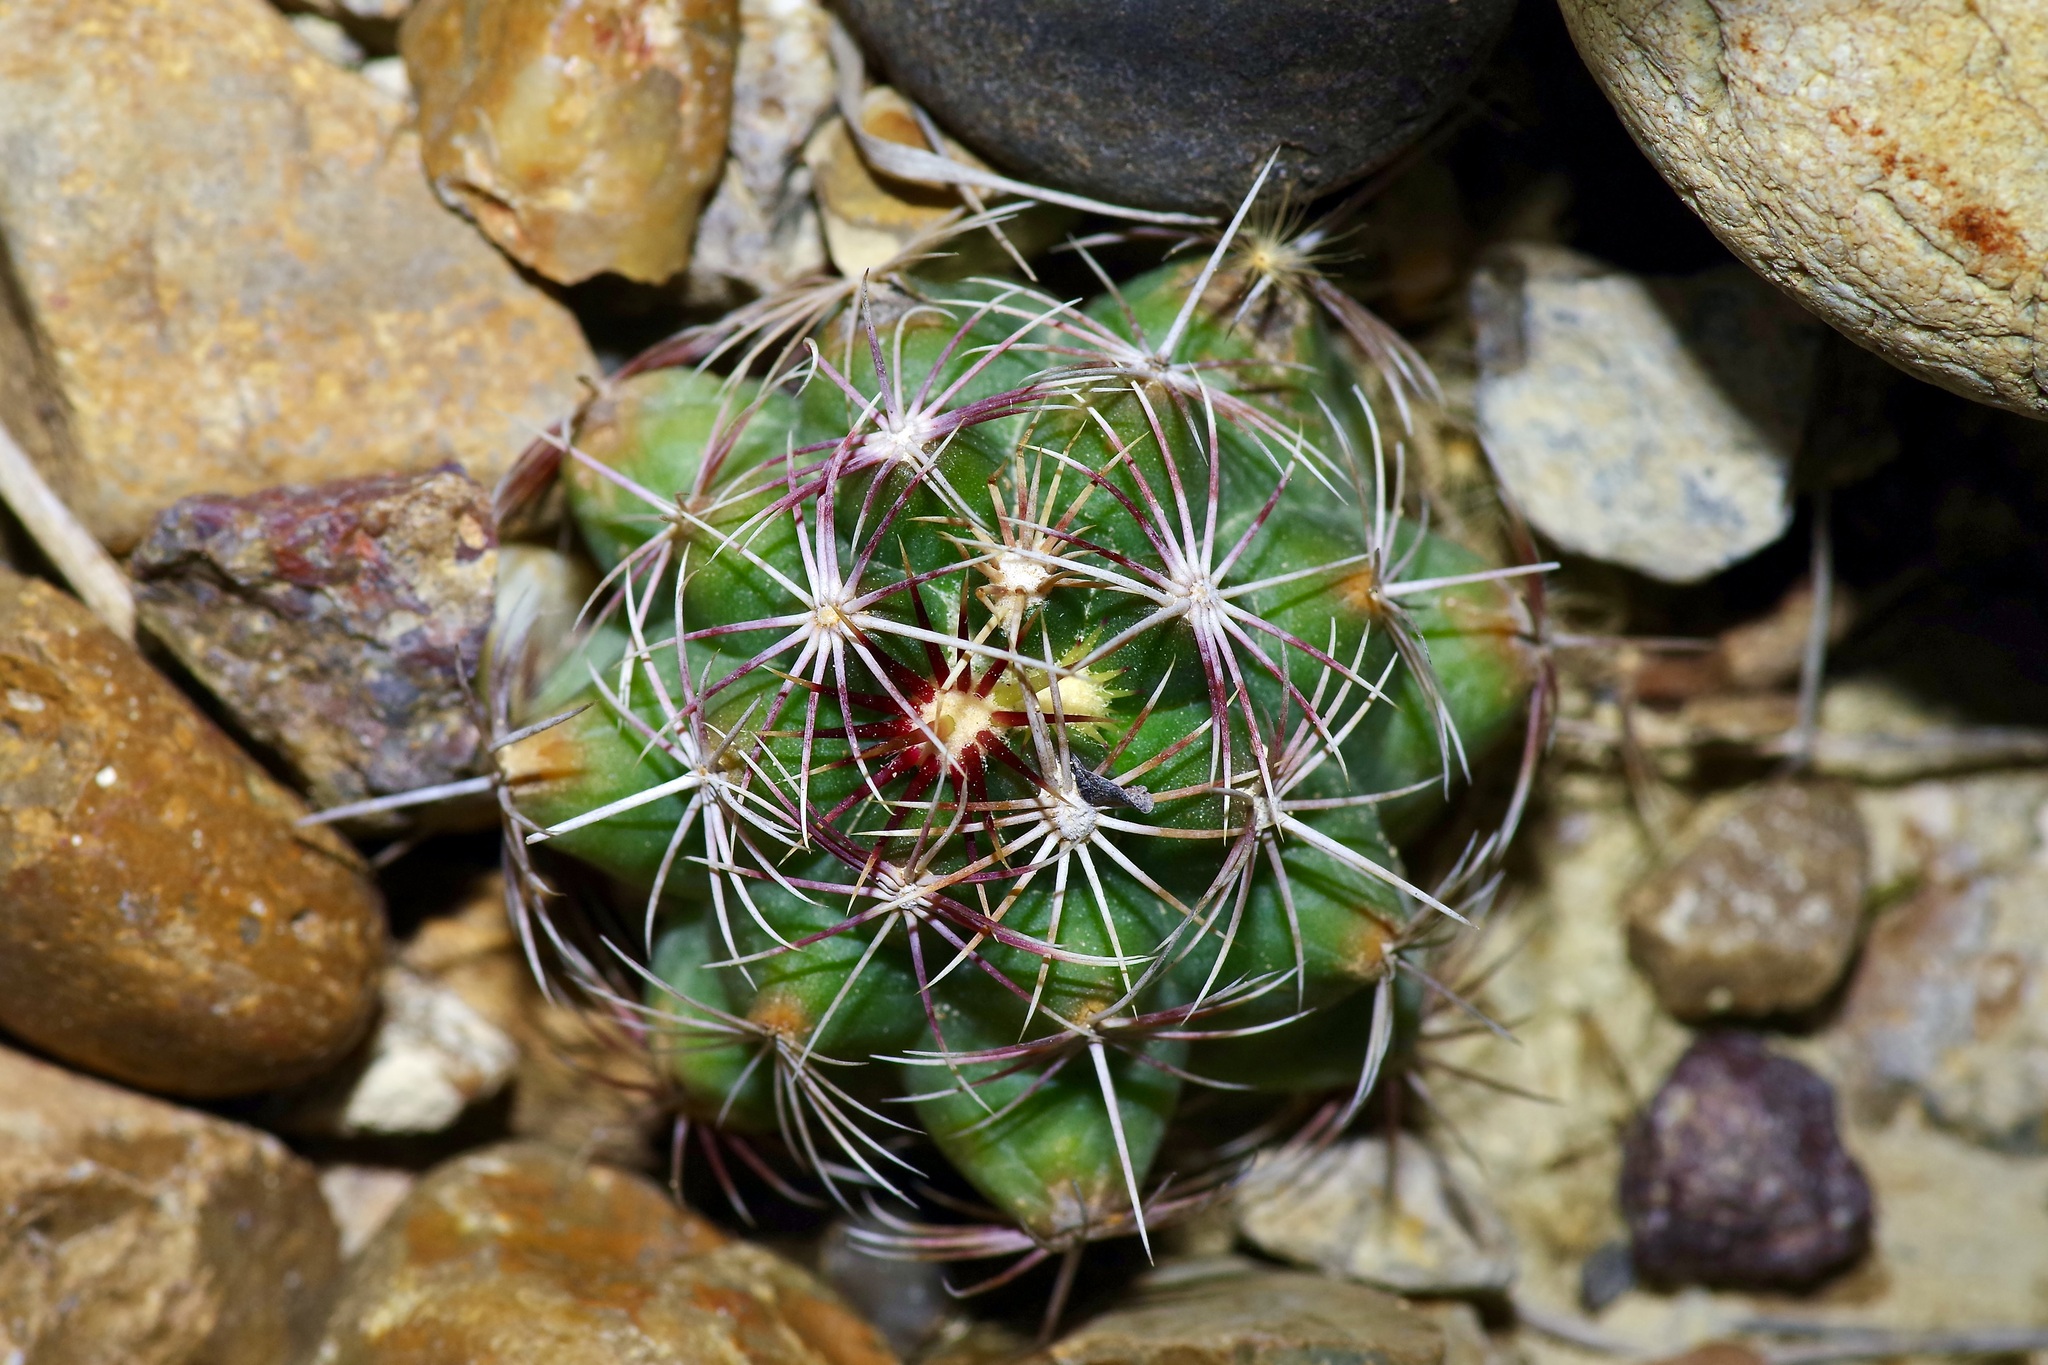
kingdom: Plantae
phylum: Tracheophyta
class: Magnoliopsida
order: Caryophyllales
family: Cactaceae
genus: Thelocactus
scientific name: Thelocactus bicolor
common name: Glory of texas
